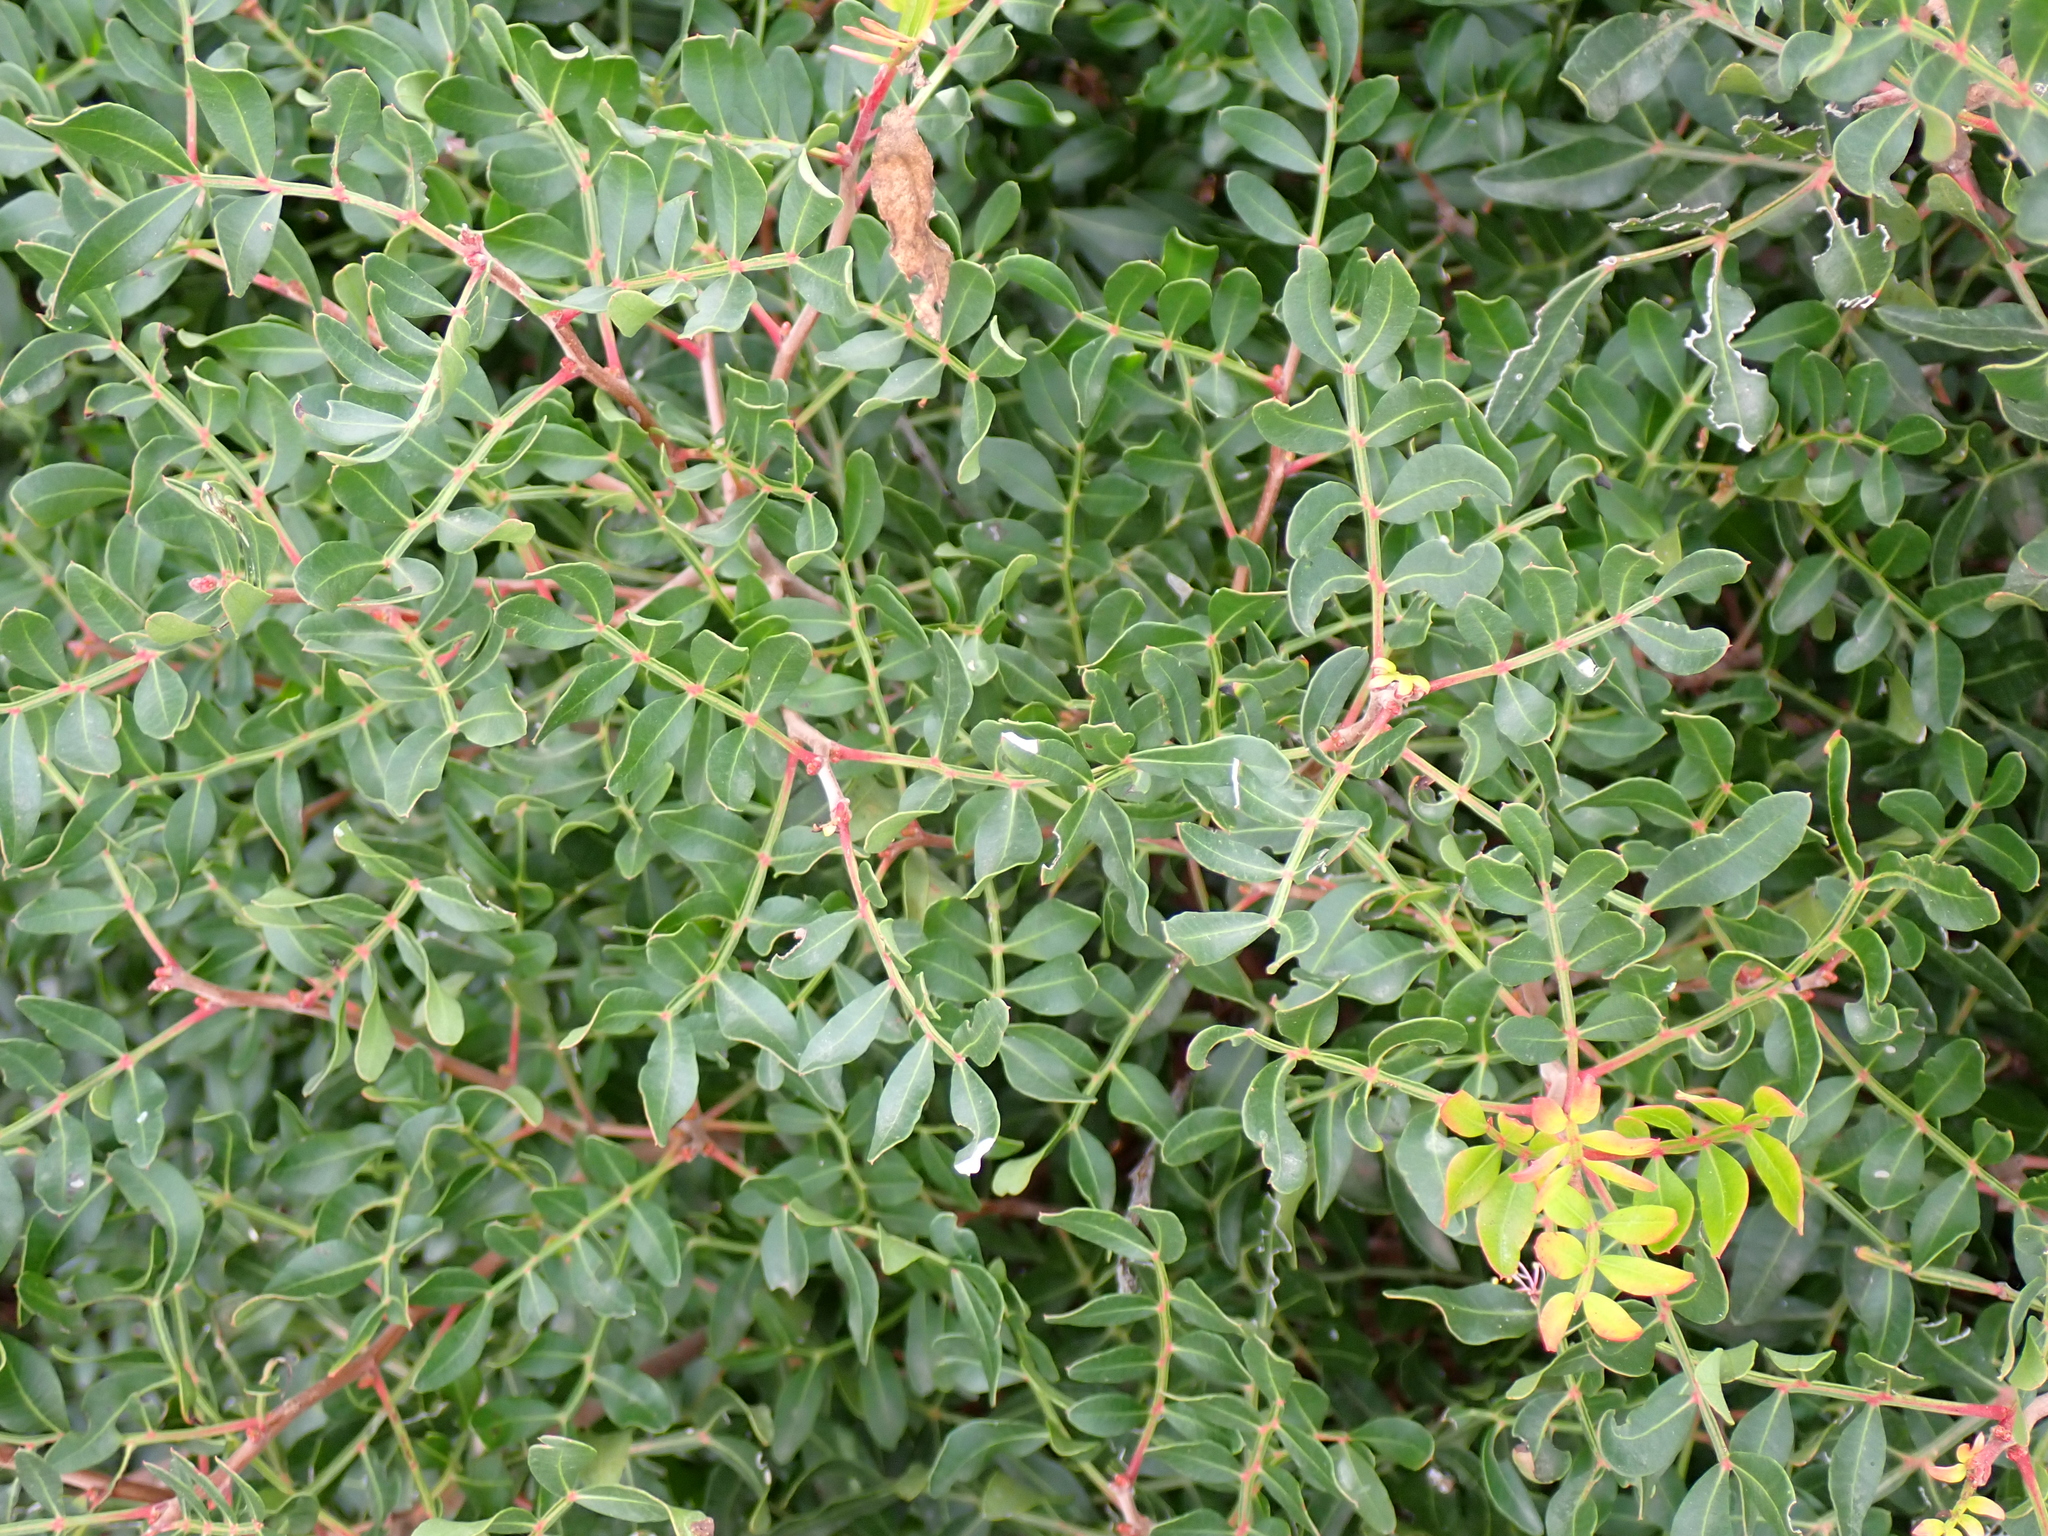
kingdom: Plantae
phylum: Tracheophyta
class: Magnoliopsida
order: Sapindales
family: Anacardiaceae
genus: Pistacia
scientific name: Pistacia lentiscus
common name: Lentisk
